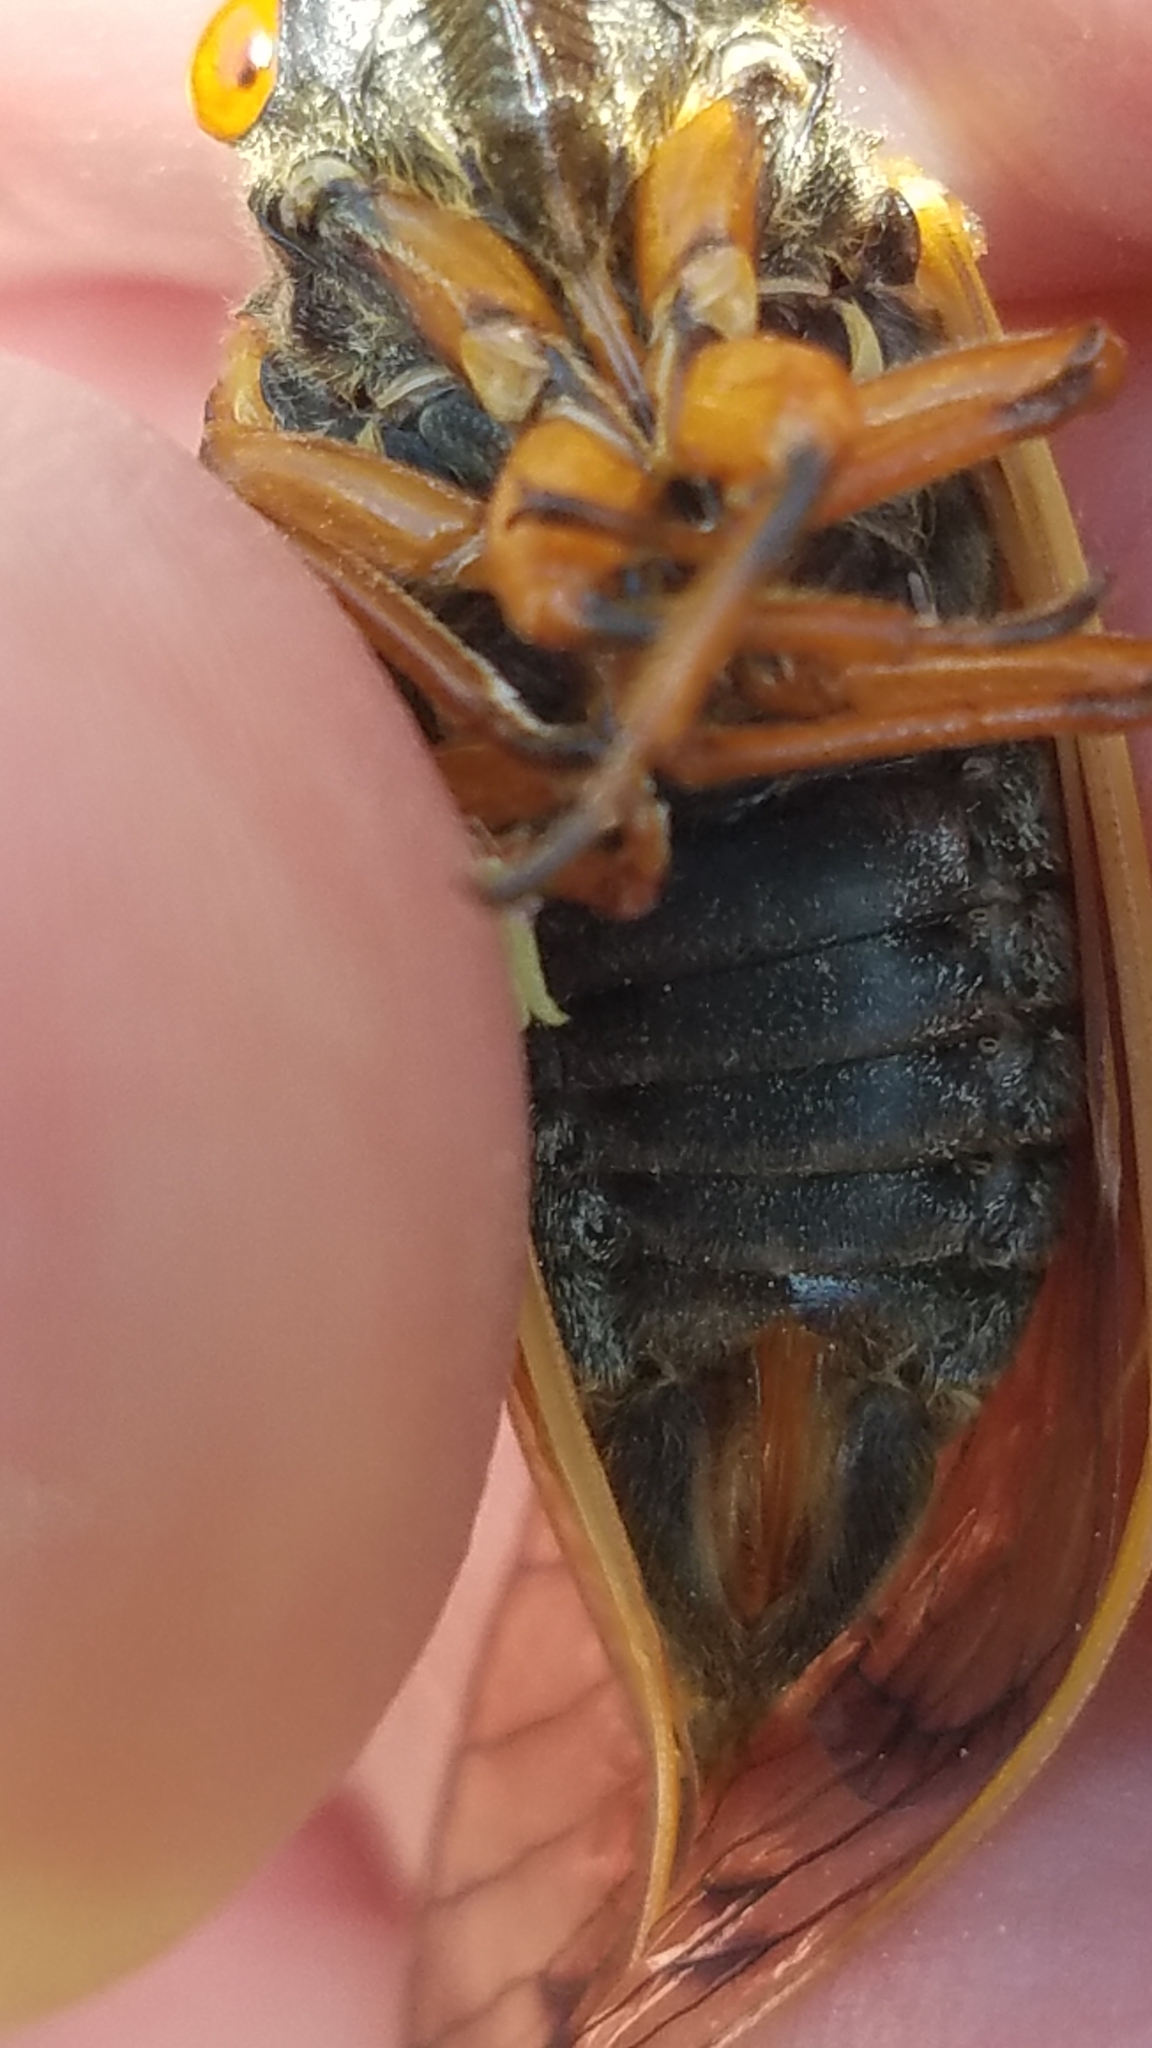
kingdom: Animalia
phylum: Arthropoda
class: Insecta
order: Hemiptera
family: Cicadidae
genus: Magicicada
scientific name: Magicicada cassini
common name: Cassin's 17-year cicada
